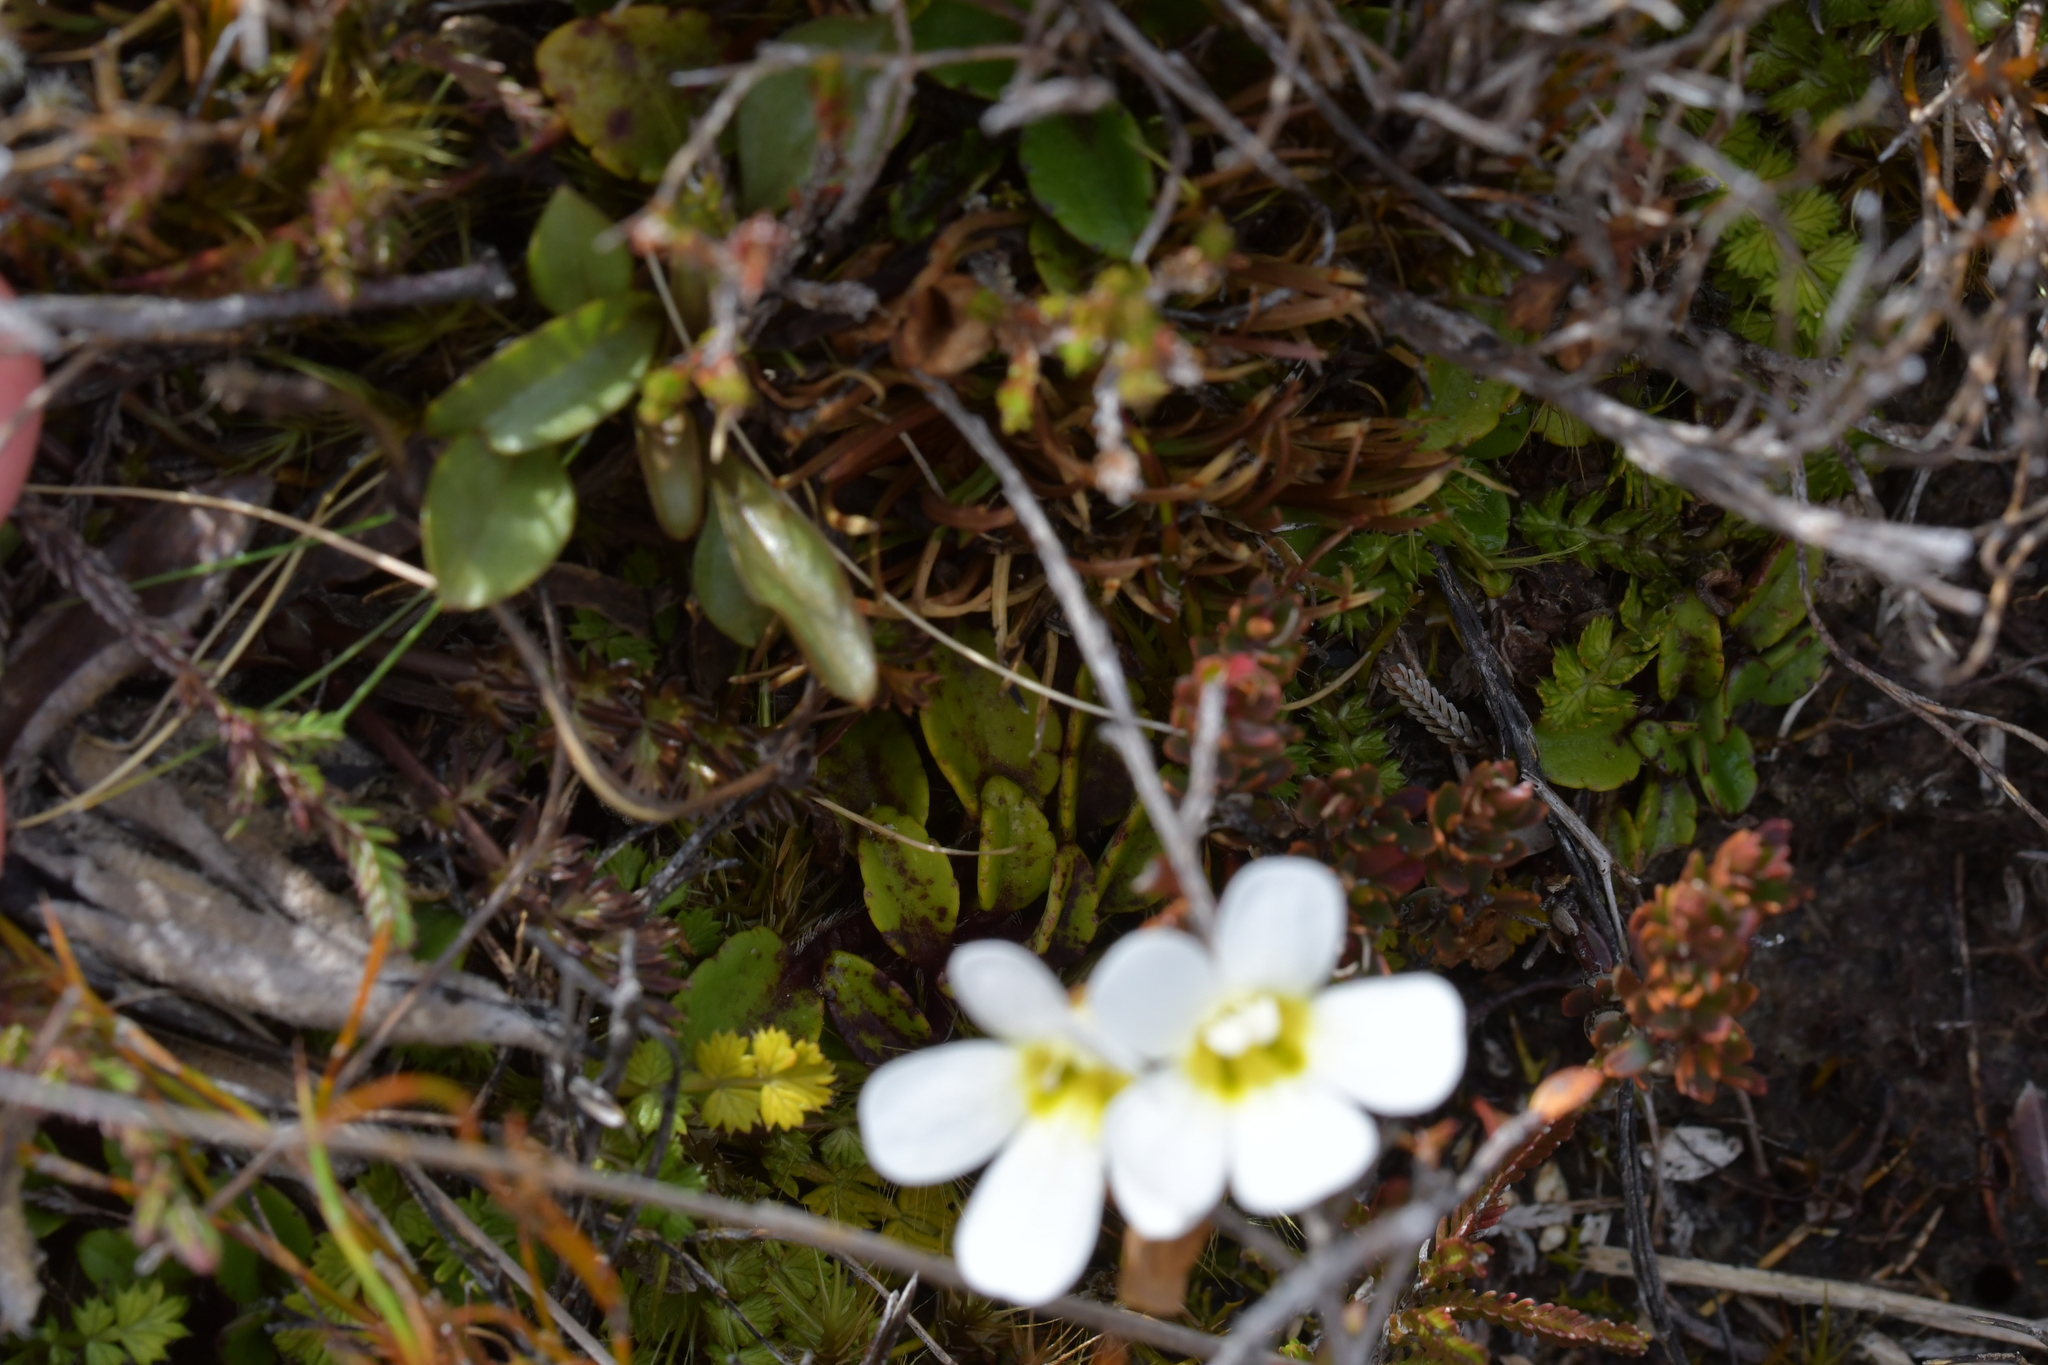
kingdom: Plantae
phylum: Tracheophyta
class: Magnoliopsida
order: Lamiales
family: Plantaginaceae
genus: Ourisia
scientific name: Ourisia vulcanica
